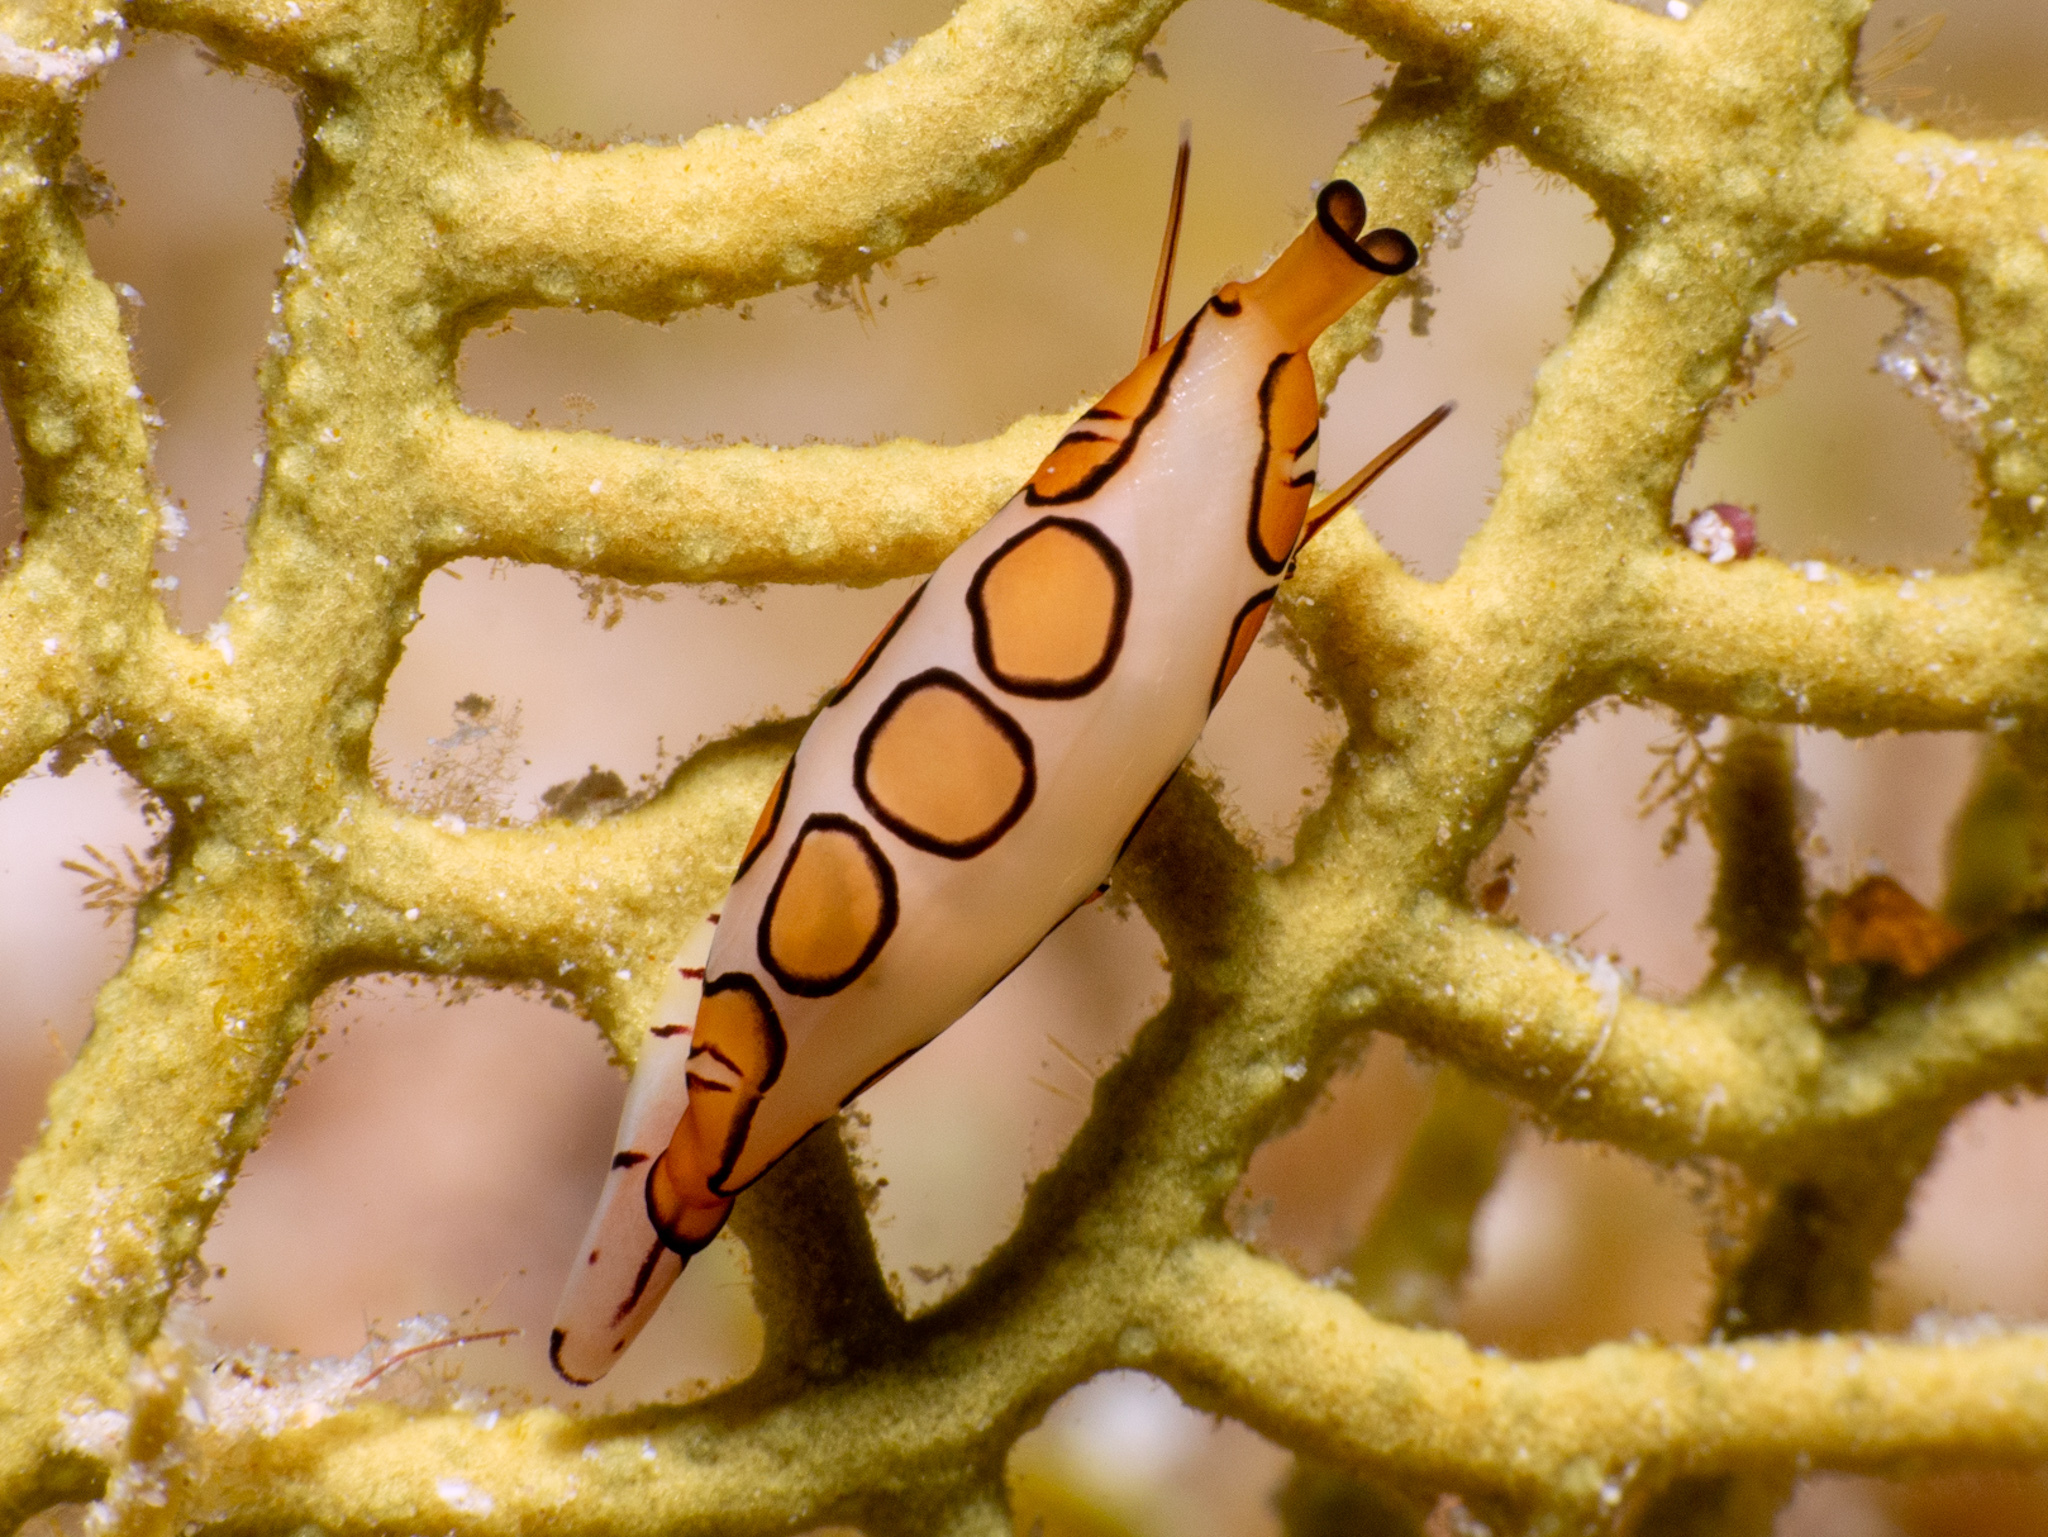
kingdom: Animalia
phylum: Mollusca
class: Gastropoda
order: Littorinimorpha
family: Ovulidae
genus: Cyphoma
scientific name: Cyphoma gibbosum
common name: Flamingo tongue
